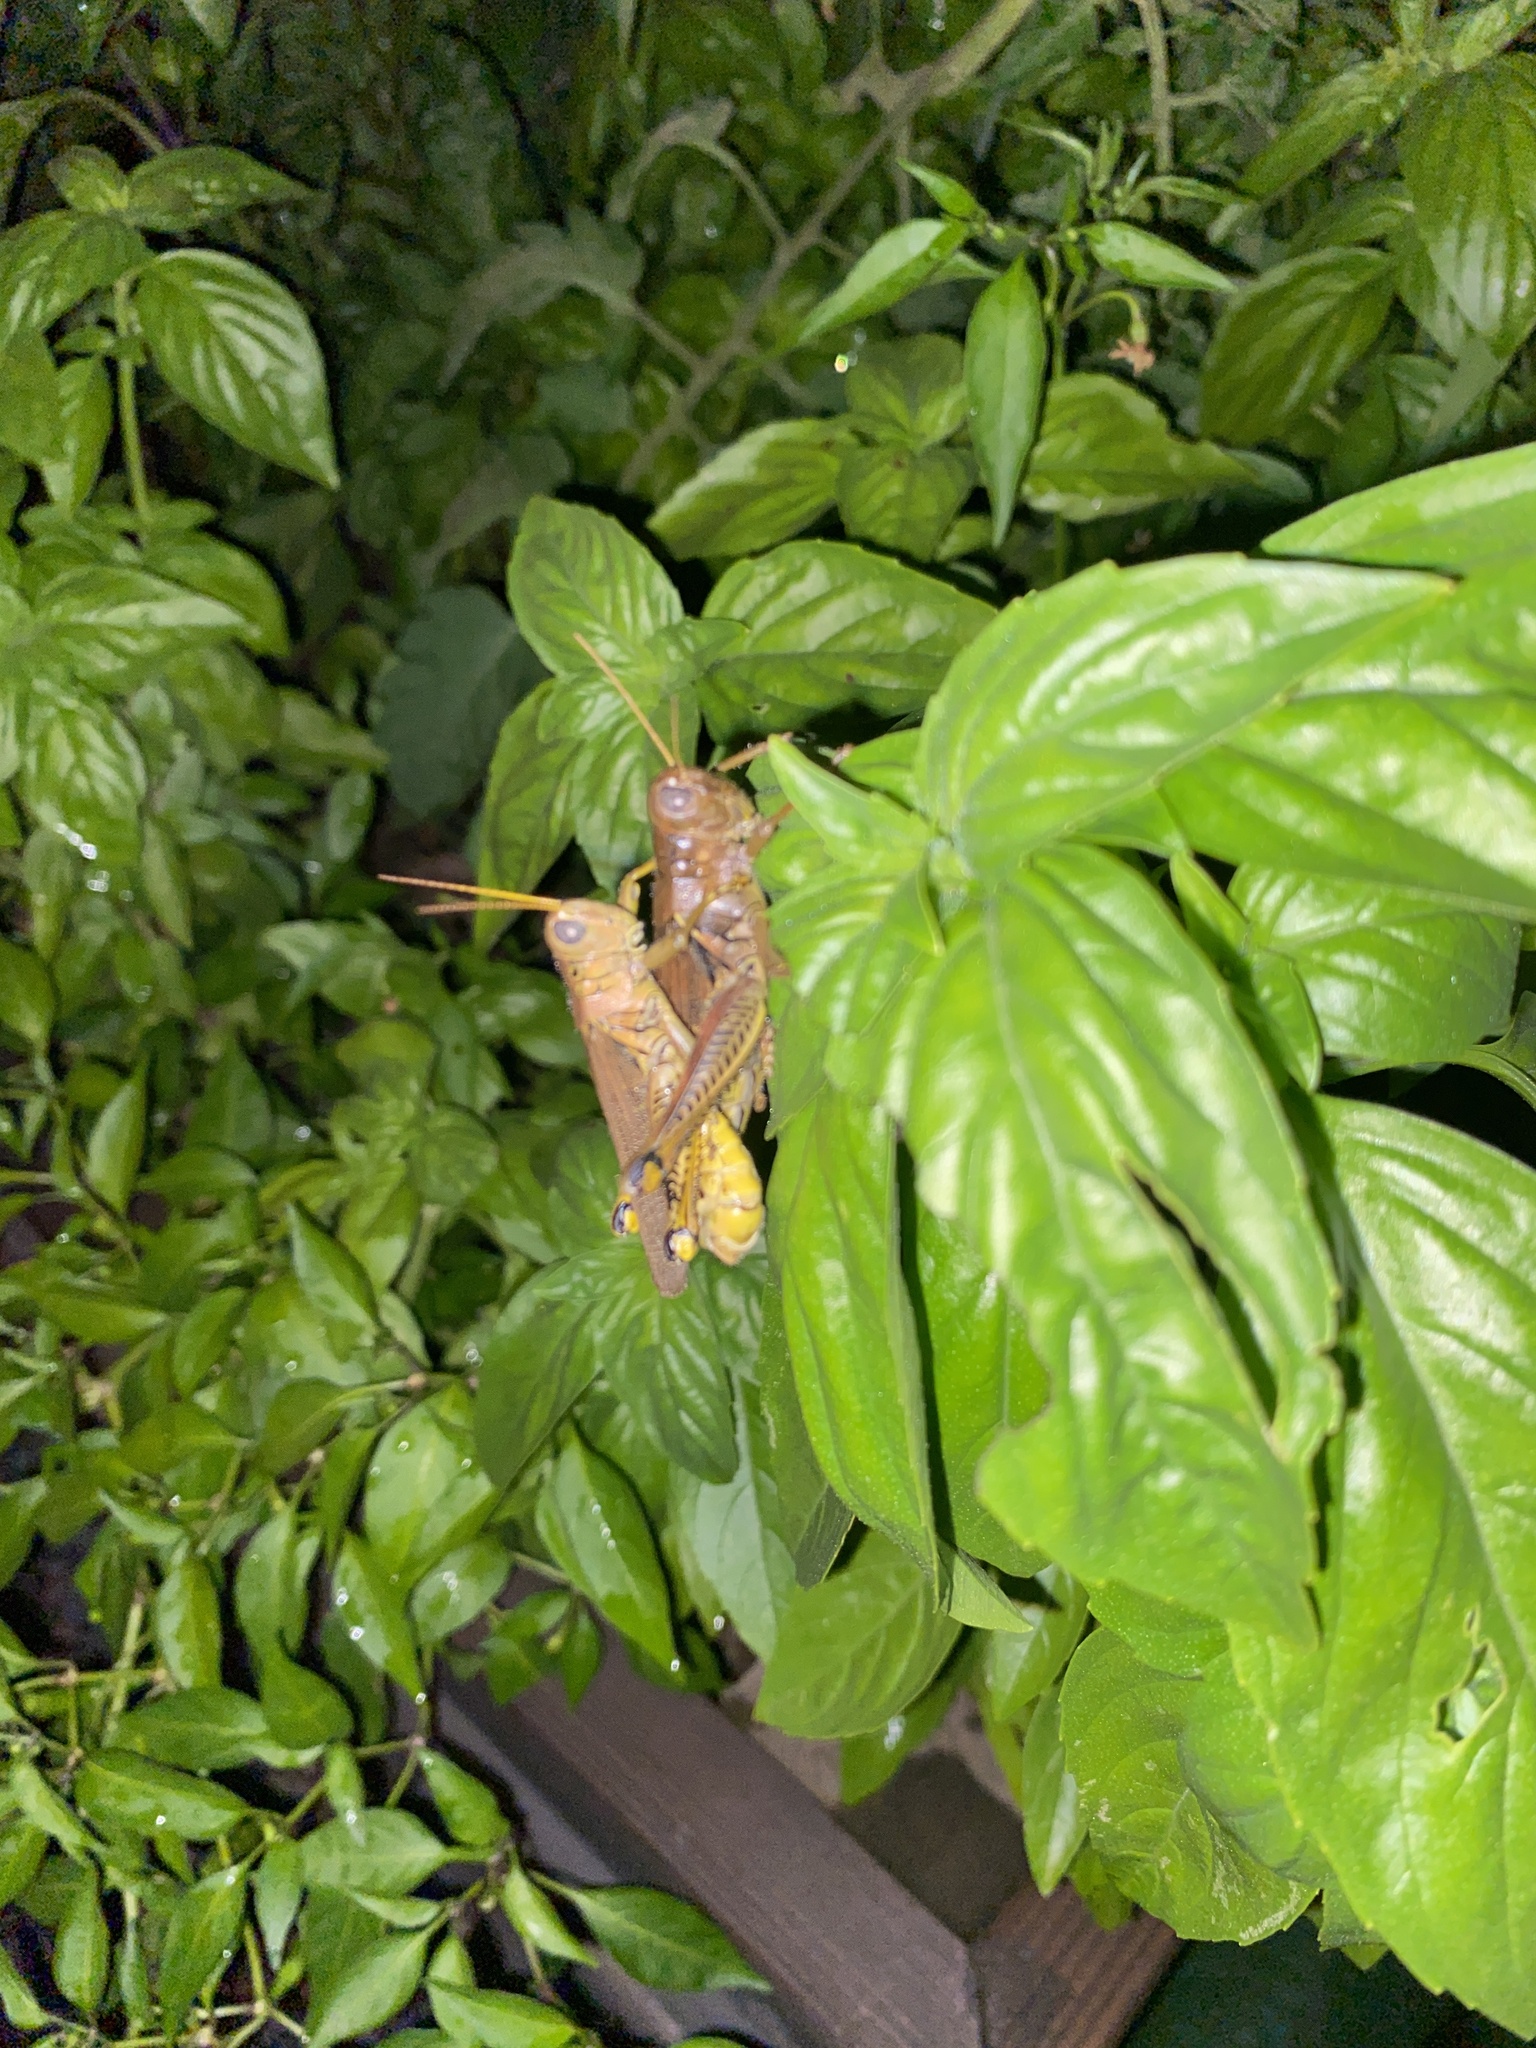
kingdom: Animalia
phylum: Arthropoda
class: Insecta
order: Orthoptera
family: Acrididae
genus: Melanoplus
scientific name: Melanoplus differentialis
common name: Differential grasshopper
